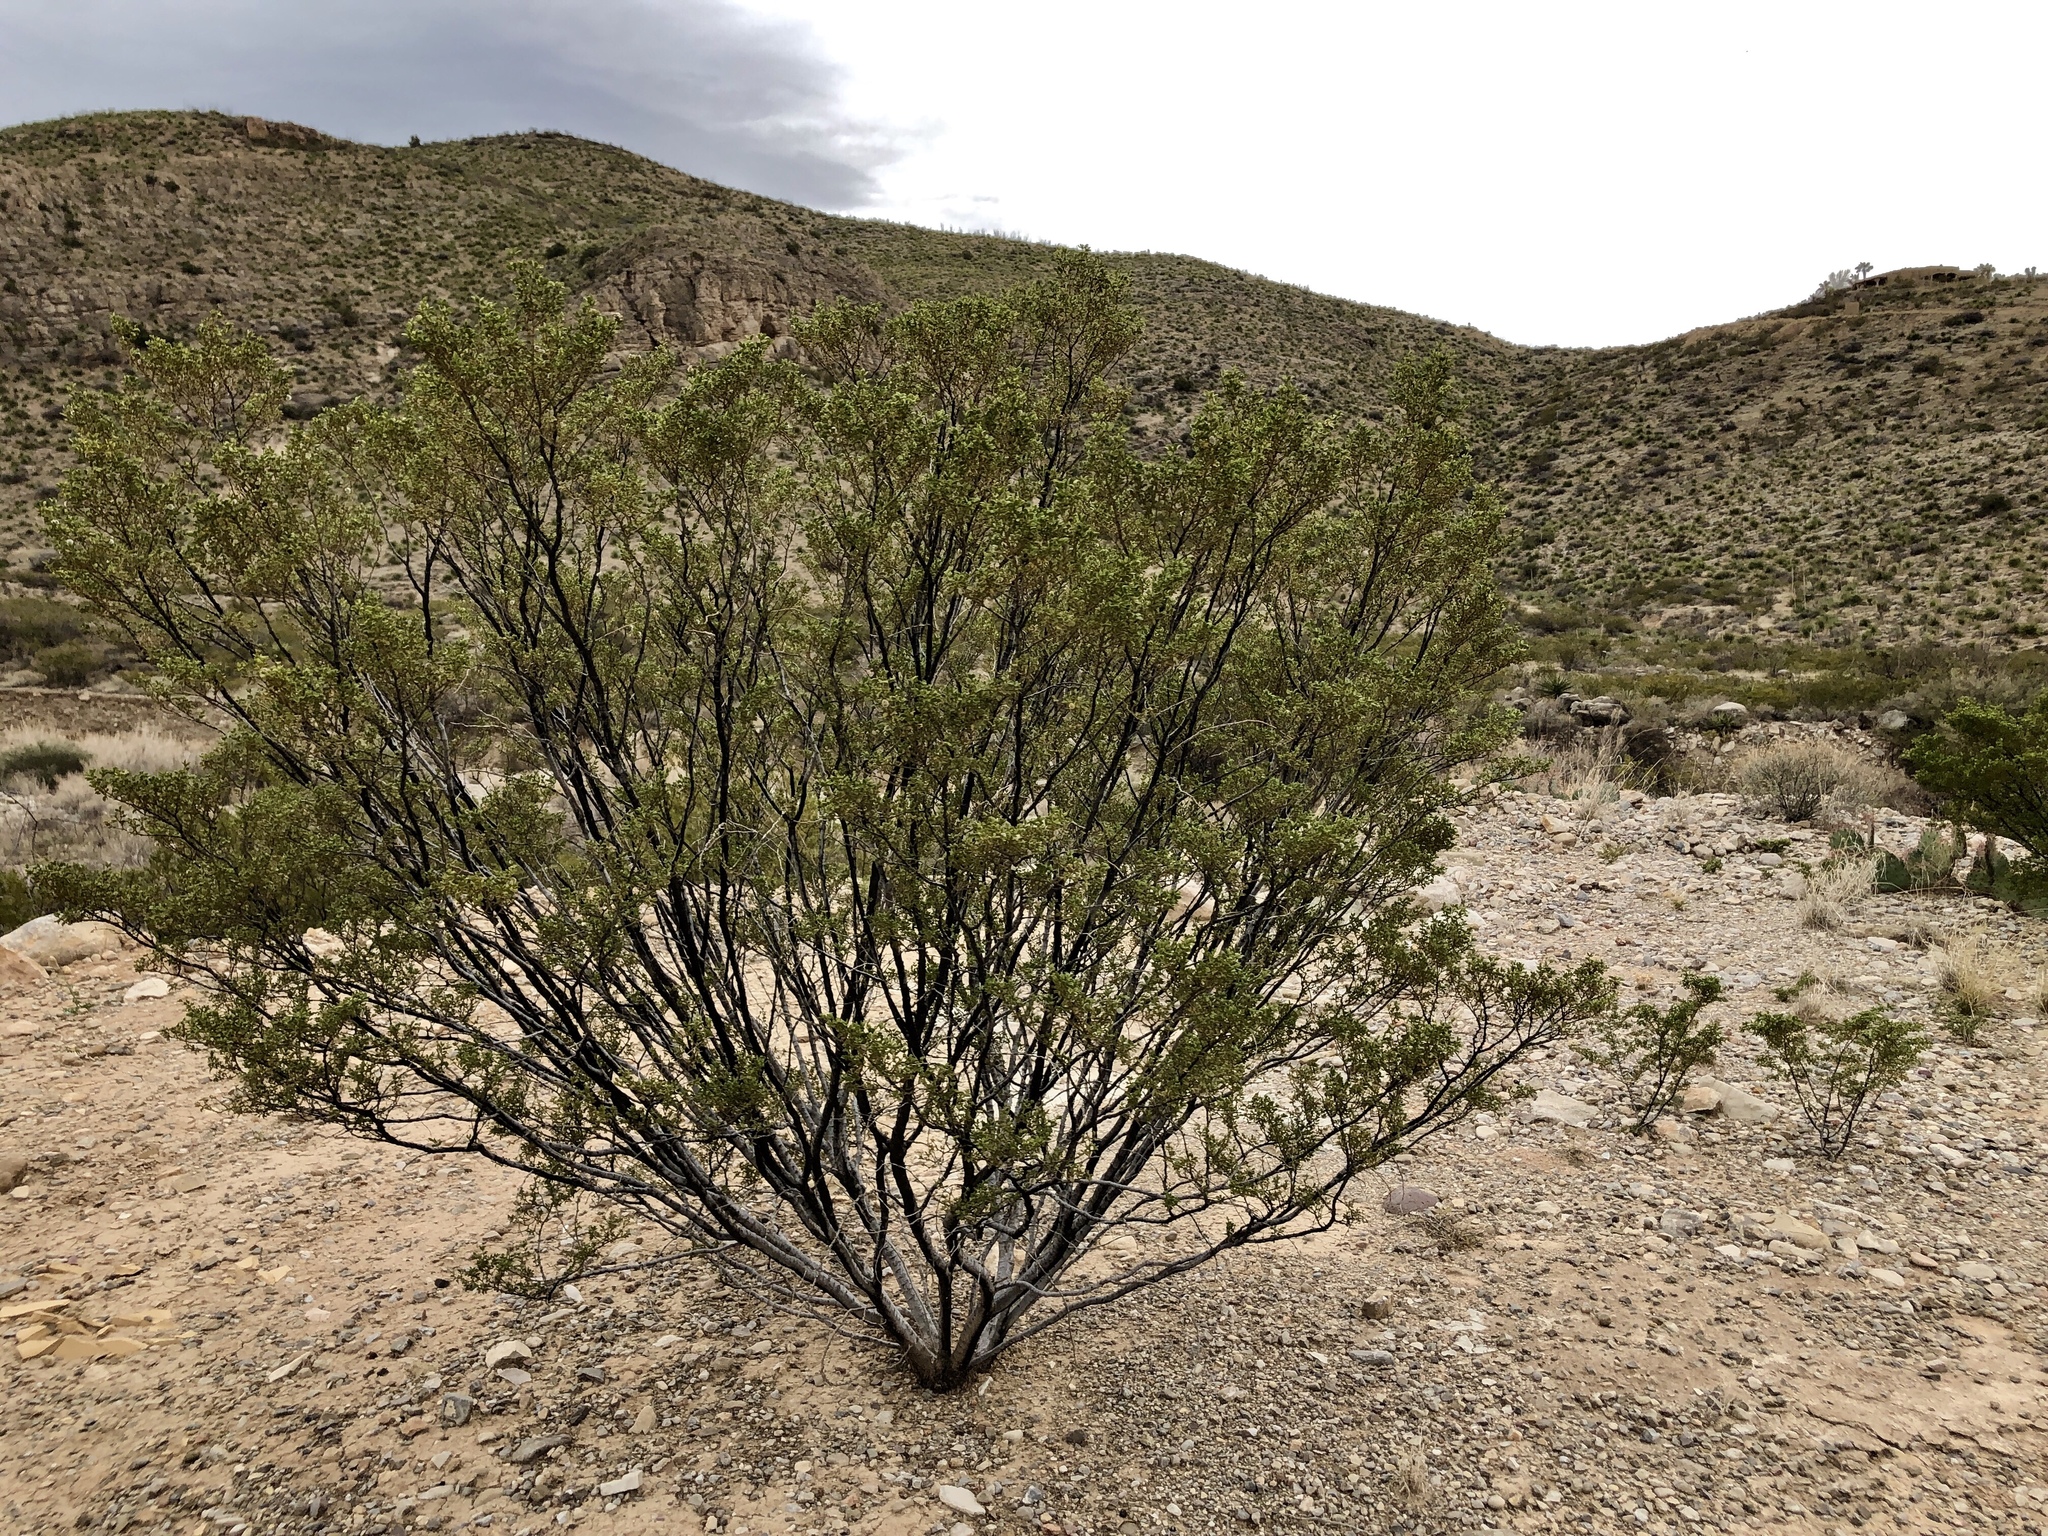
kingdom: Plantae
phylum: Tracheophyta
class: Magnoliopsida
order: Zygophyllales
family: Zygophyllaceae
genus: Larrea
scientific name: Larrea tridentata
